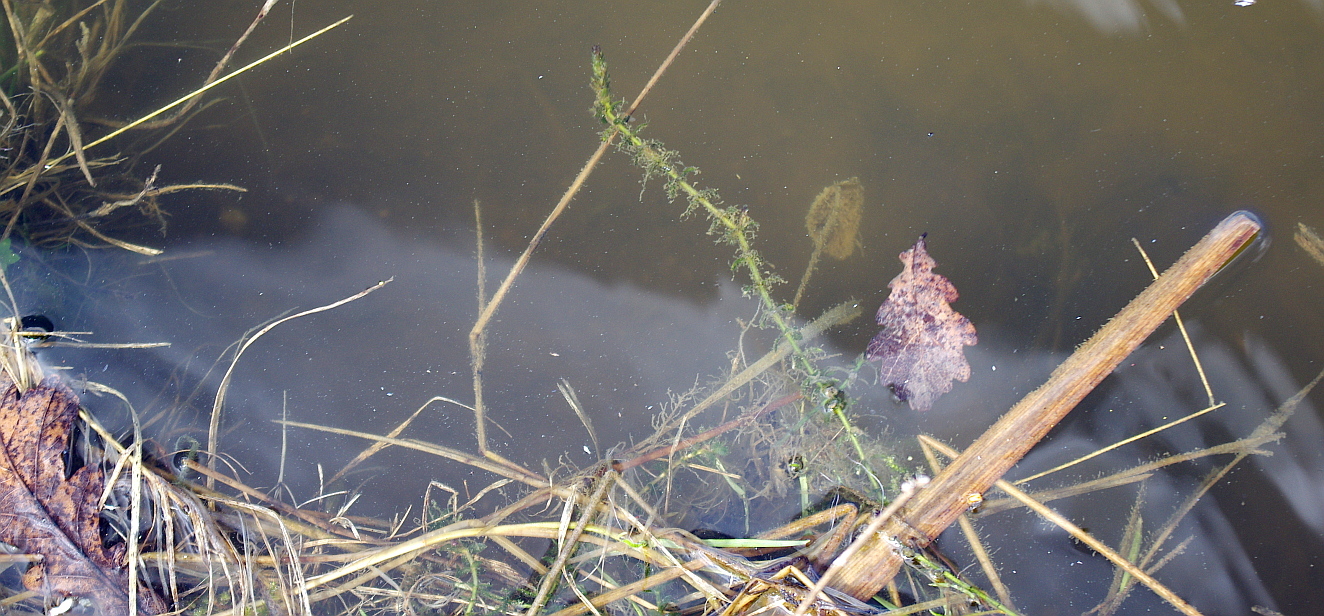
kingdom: Plantae
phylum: Tracheophyta
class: Liliopsida
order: Alismatales
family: Hydrocharitaceae
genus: Elodea
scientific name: Elodea canadensis
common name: Canadian waterweed
